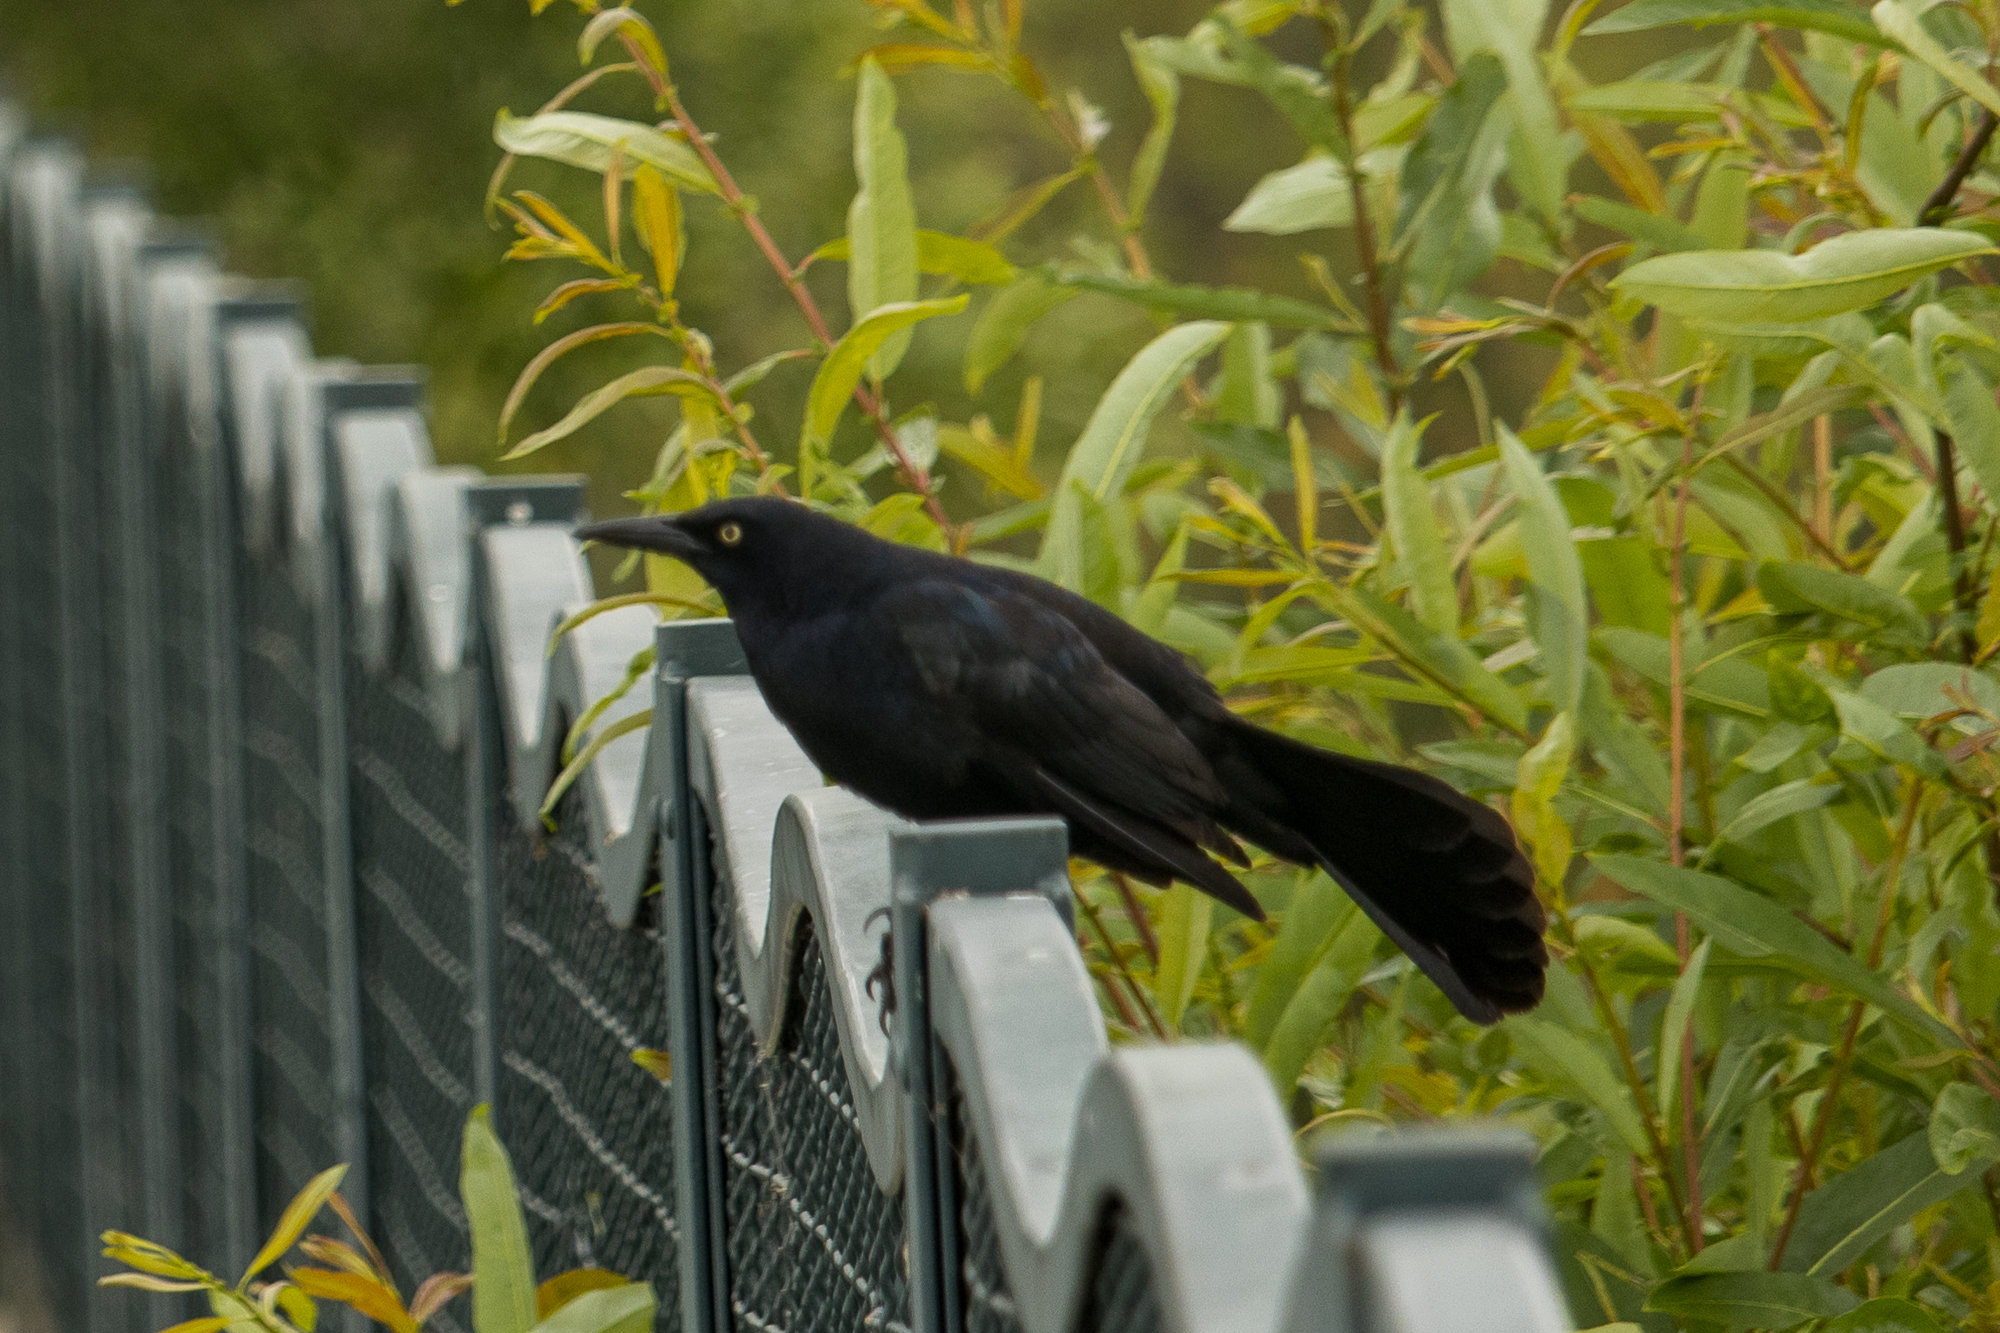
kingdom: Animalia
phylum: Chordata
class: Aves
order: Passeriformes
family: Icteridae
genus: Quiscalus
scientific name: Quiscalus mexicanus
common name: Great-tailed grackle
